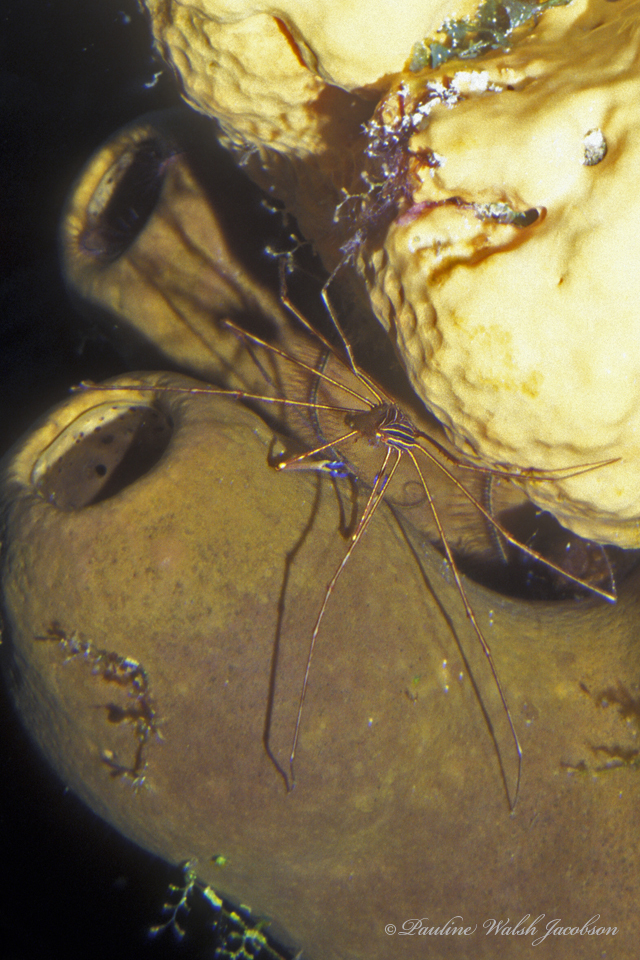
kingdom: Animalia
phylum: Arthropoda
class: Malacostraca
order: Decapoda
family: Inachoididae
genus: Stenorhynchus
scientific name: Stenorhynchus seticornis
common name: Arrow crab
